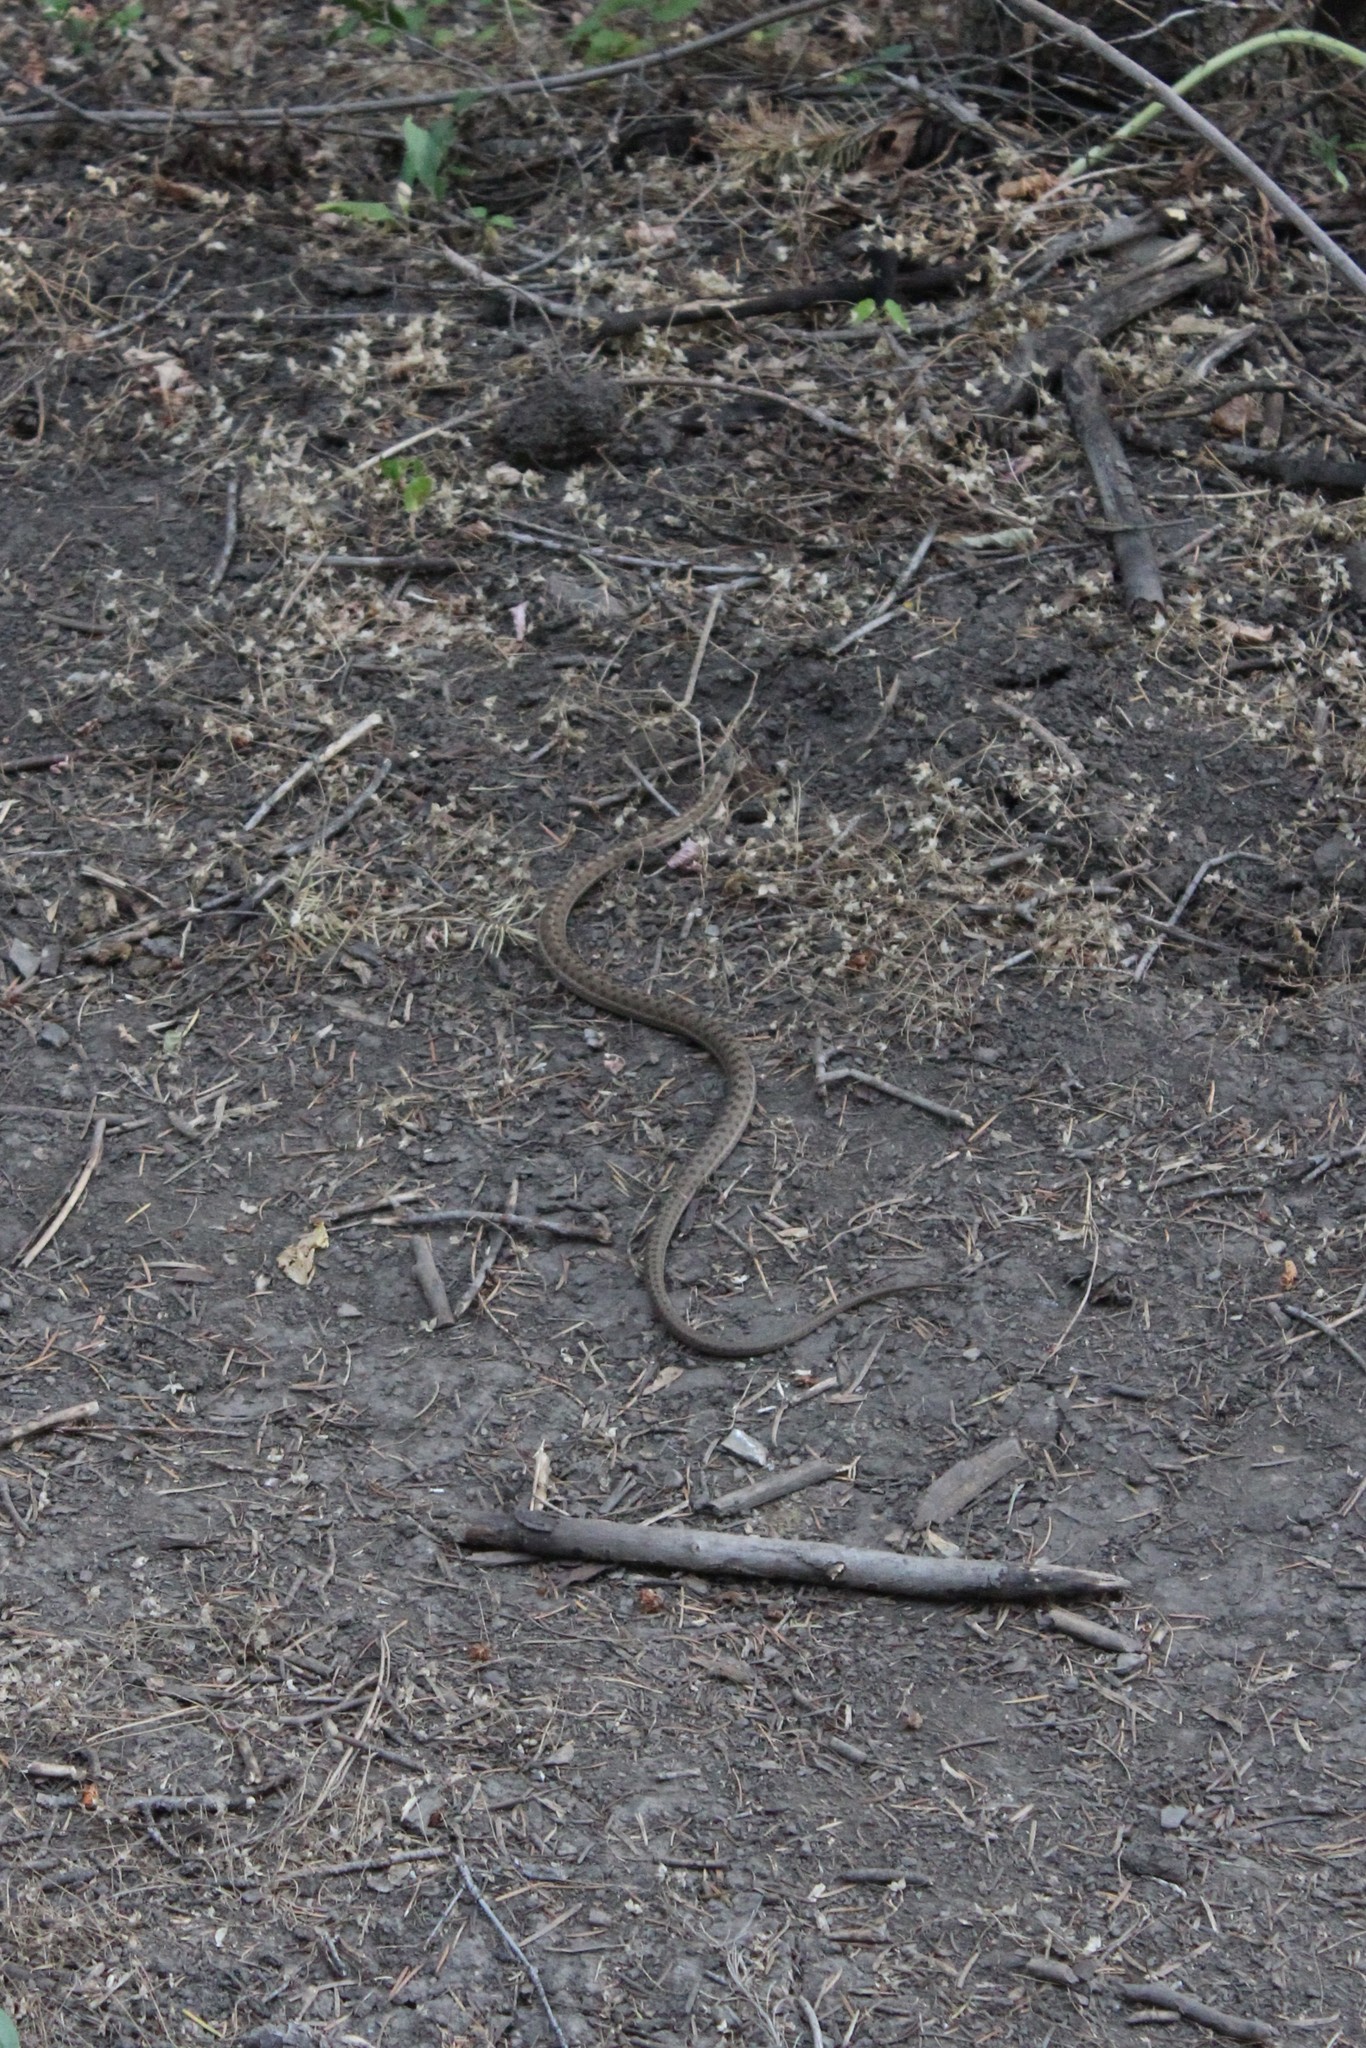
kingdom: Animalia
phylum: Chordata
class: Squamata
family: Colubridae
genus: Thamnophis
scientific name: Thamnophis elegans
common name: Western terrestrial garter snake
